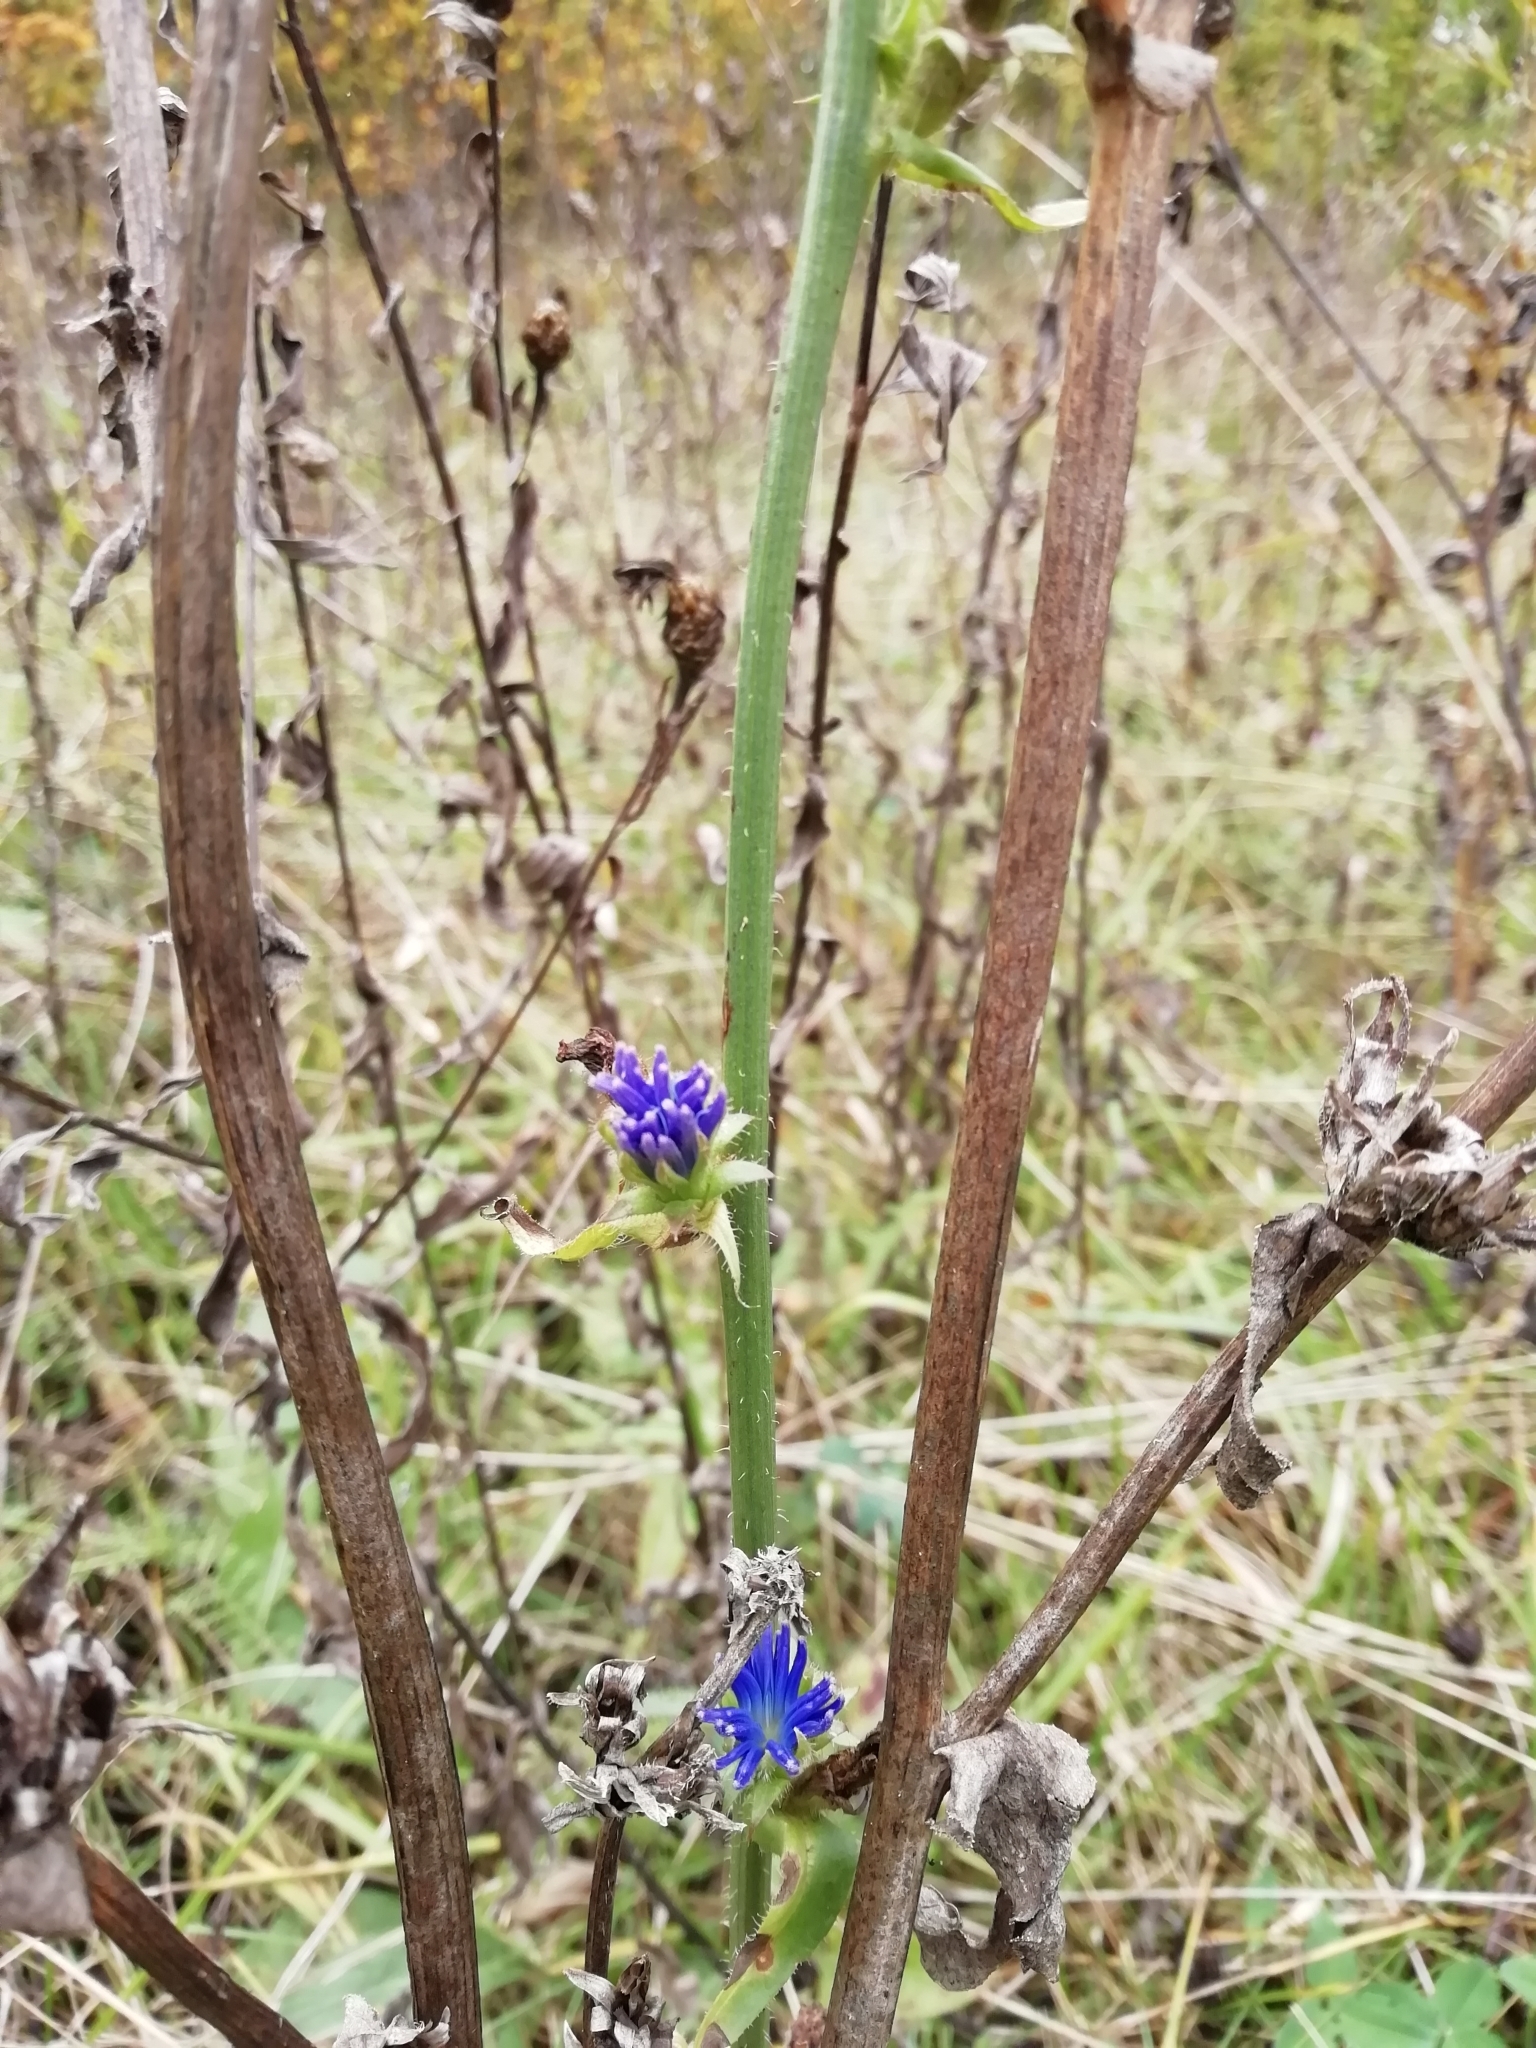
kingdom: Plantae
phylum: Tracheophyta
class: Magnoliopsida
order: Asterales
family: Asteraceae
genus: Cichorium
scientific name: Cichorium intybus
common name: Chicory
